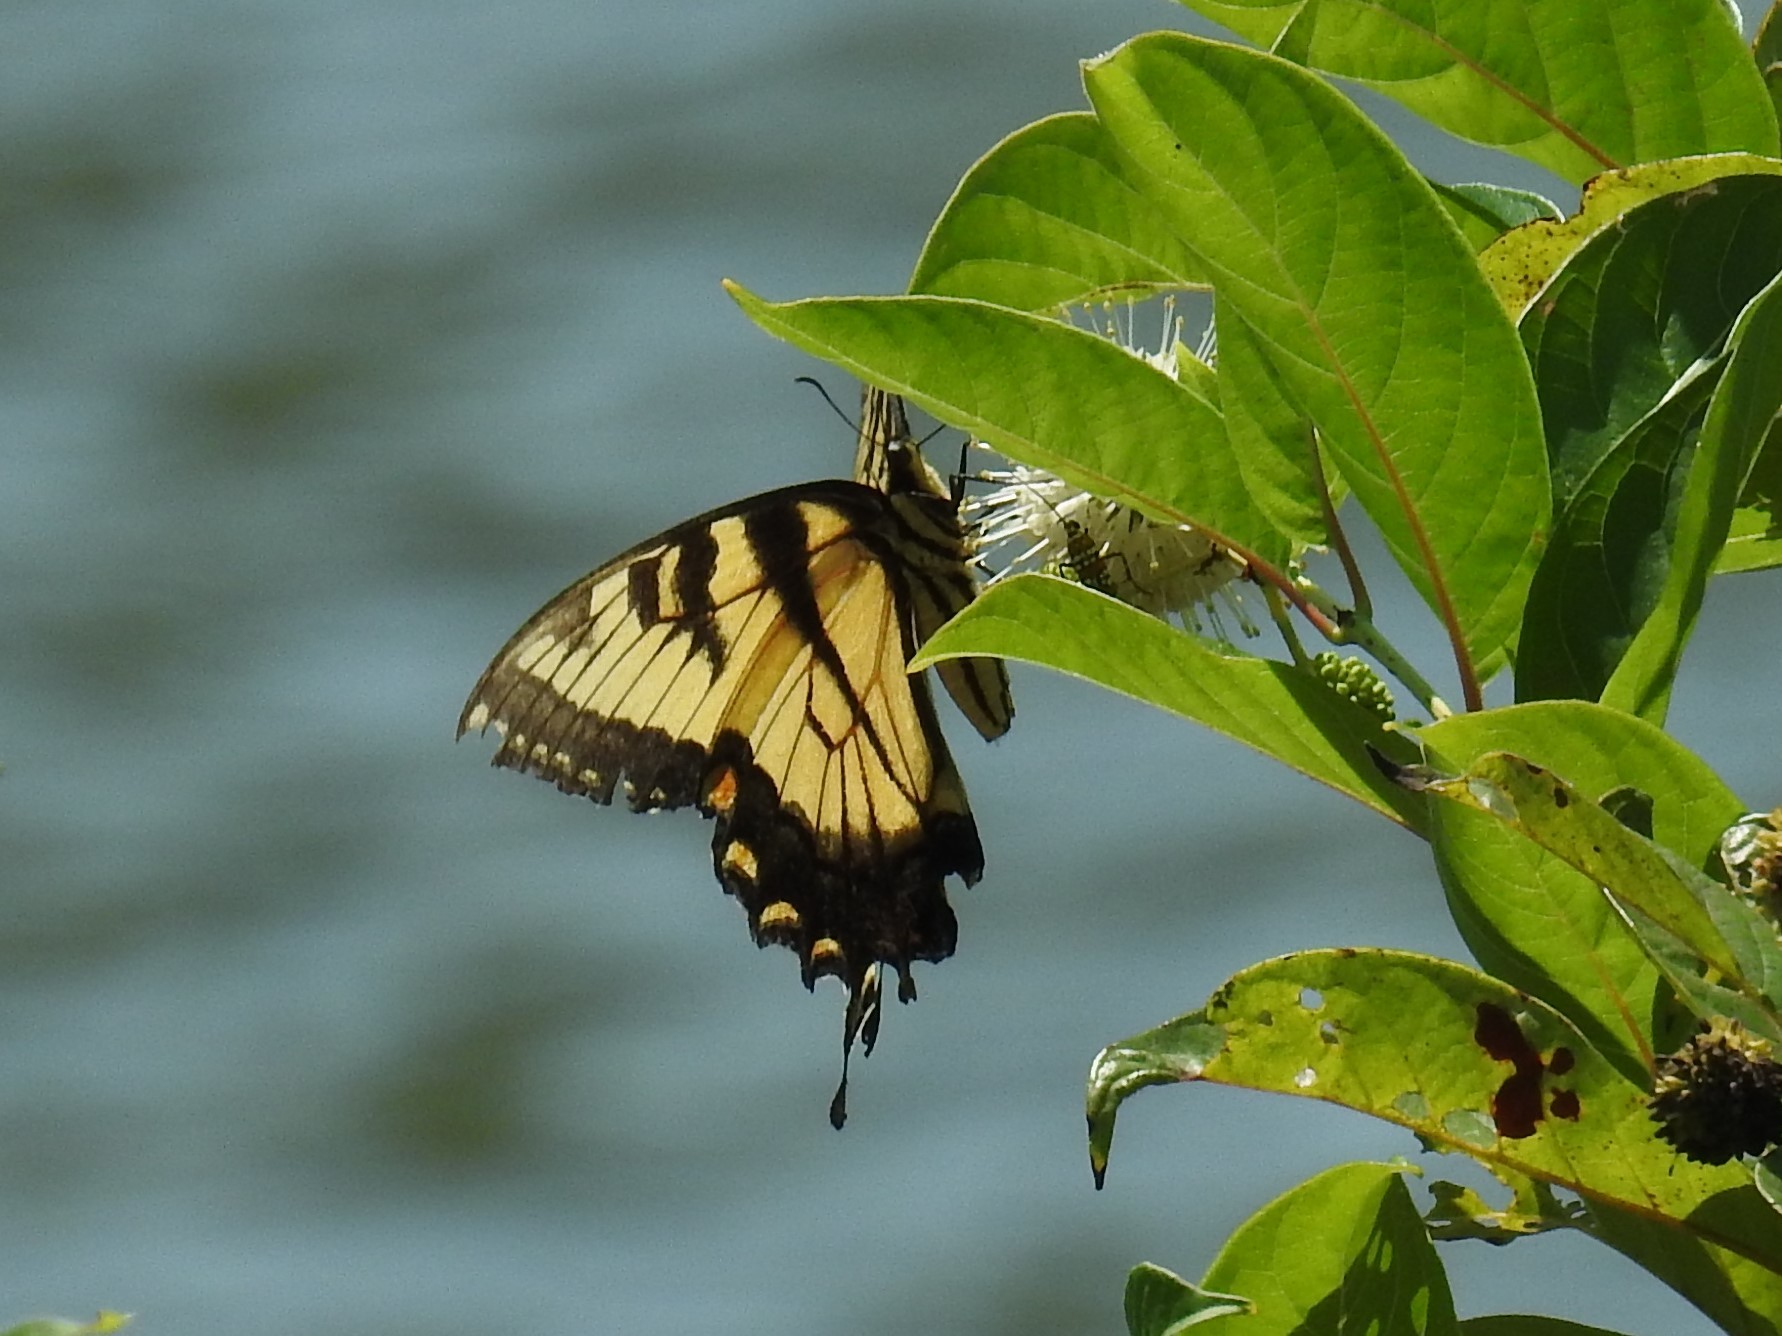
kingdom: Animalia
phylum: Arthropoda
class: Insecta
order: Lepidoptera
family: Papilionidae
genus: Papilio
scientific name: Papilio glaucus
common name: Tiger swallowtail
